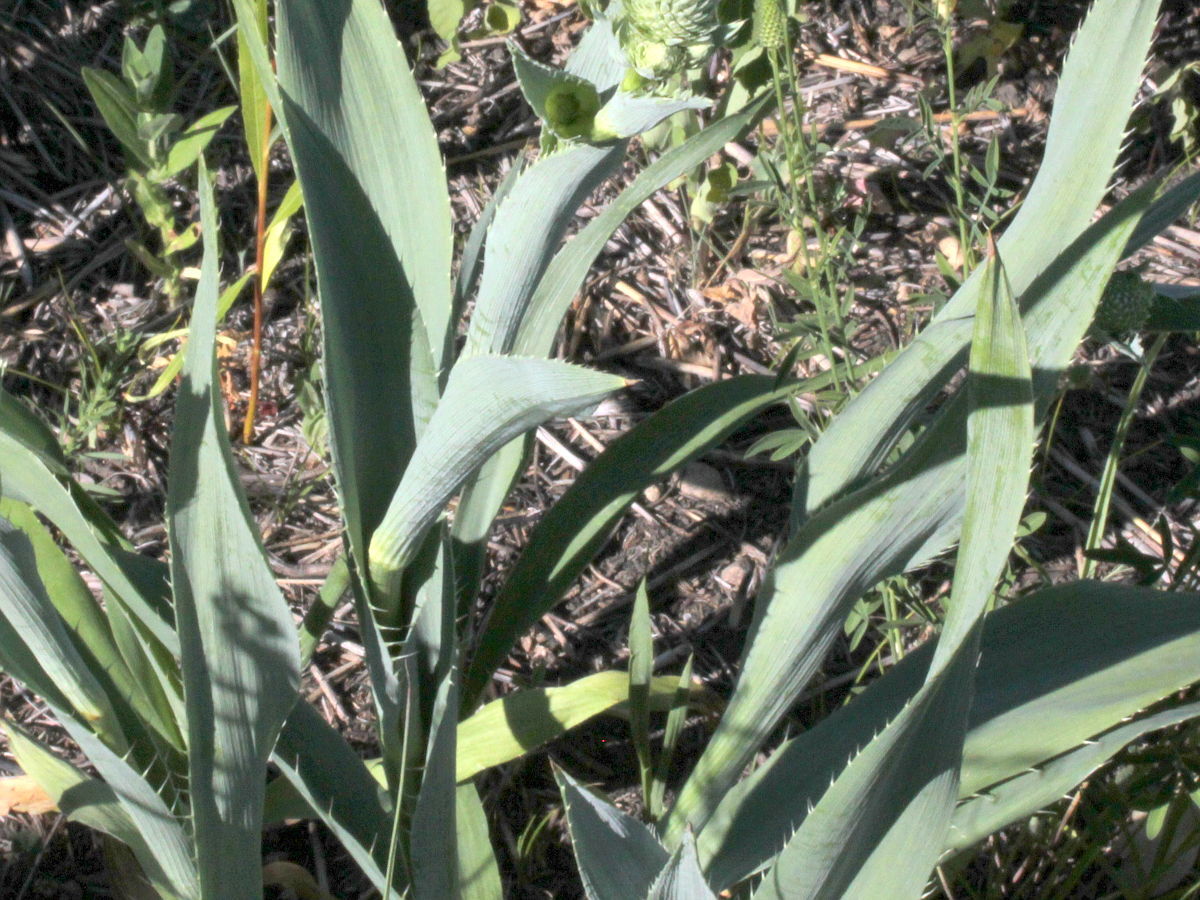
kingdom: Plantae
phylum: Tracheophyta
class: Magnoliopsida
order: Apiales
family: Apiaceae
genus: Eryngium
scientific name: Eryngium yuccifolium
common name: Button eryngo
